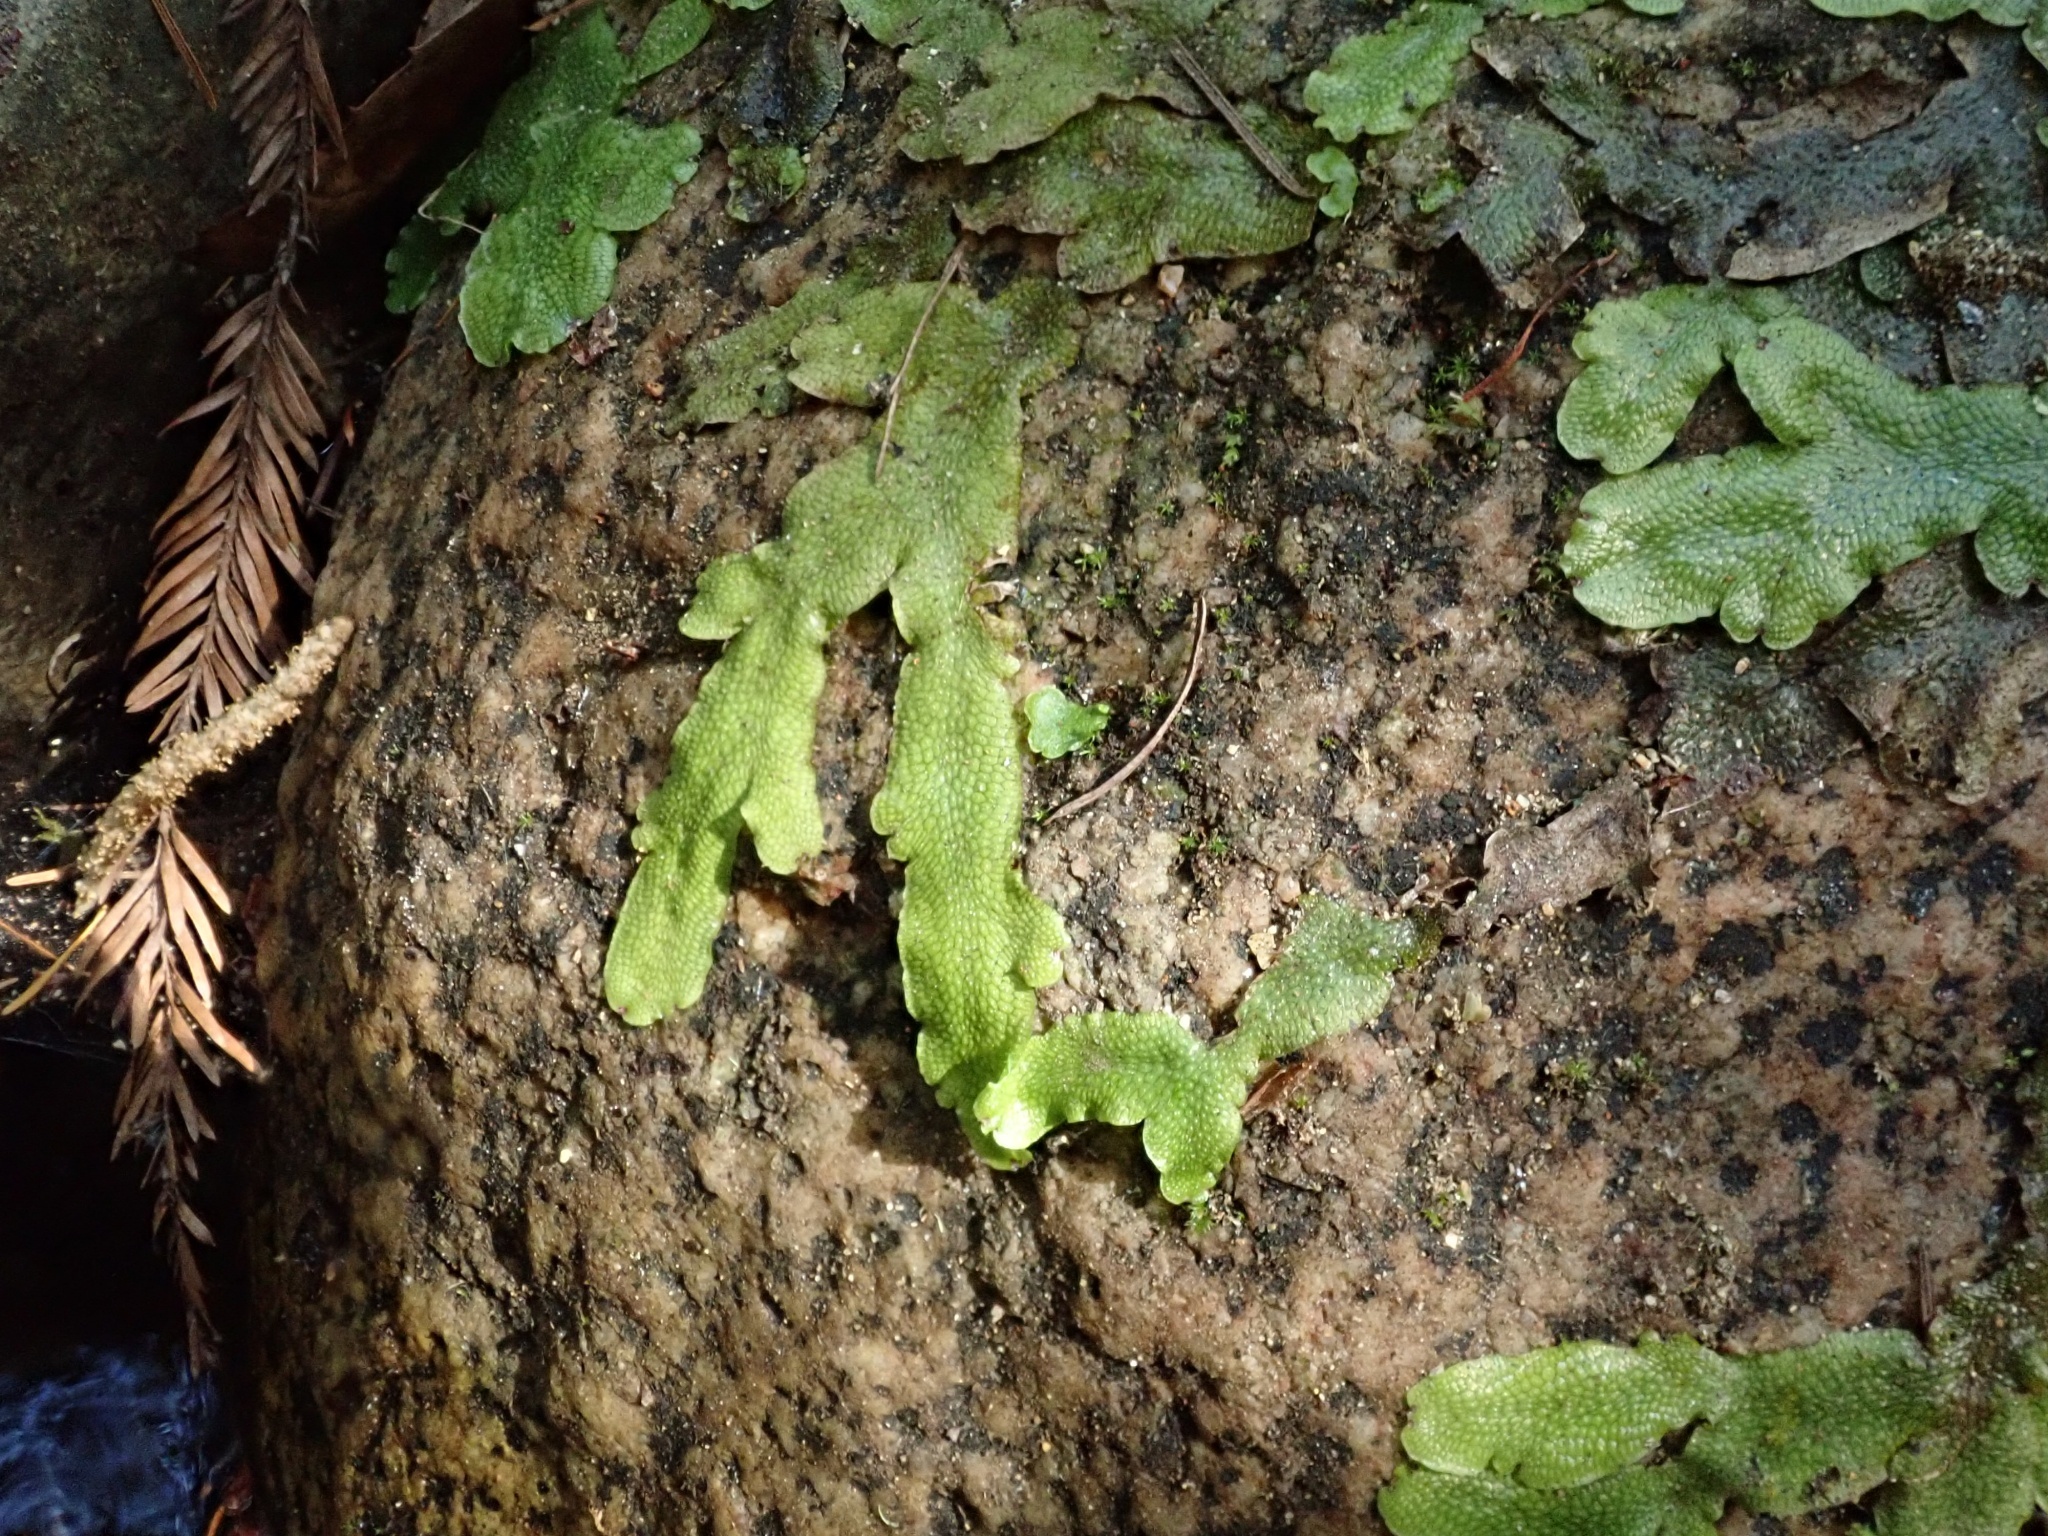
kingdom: Plantae
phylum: Marchantiophyta
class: Marchantiopsida
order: Marchantiales
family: Conocephalaceae
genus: Conocephalum
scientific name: Conocephalum salebrosum
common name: Cat-tongue liverwort
